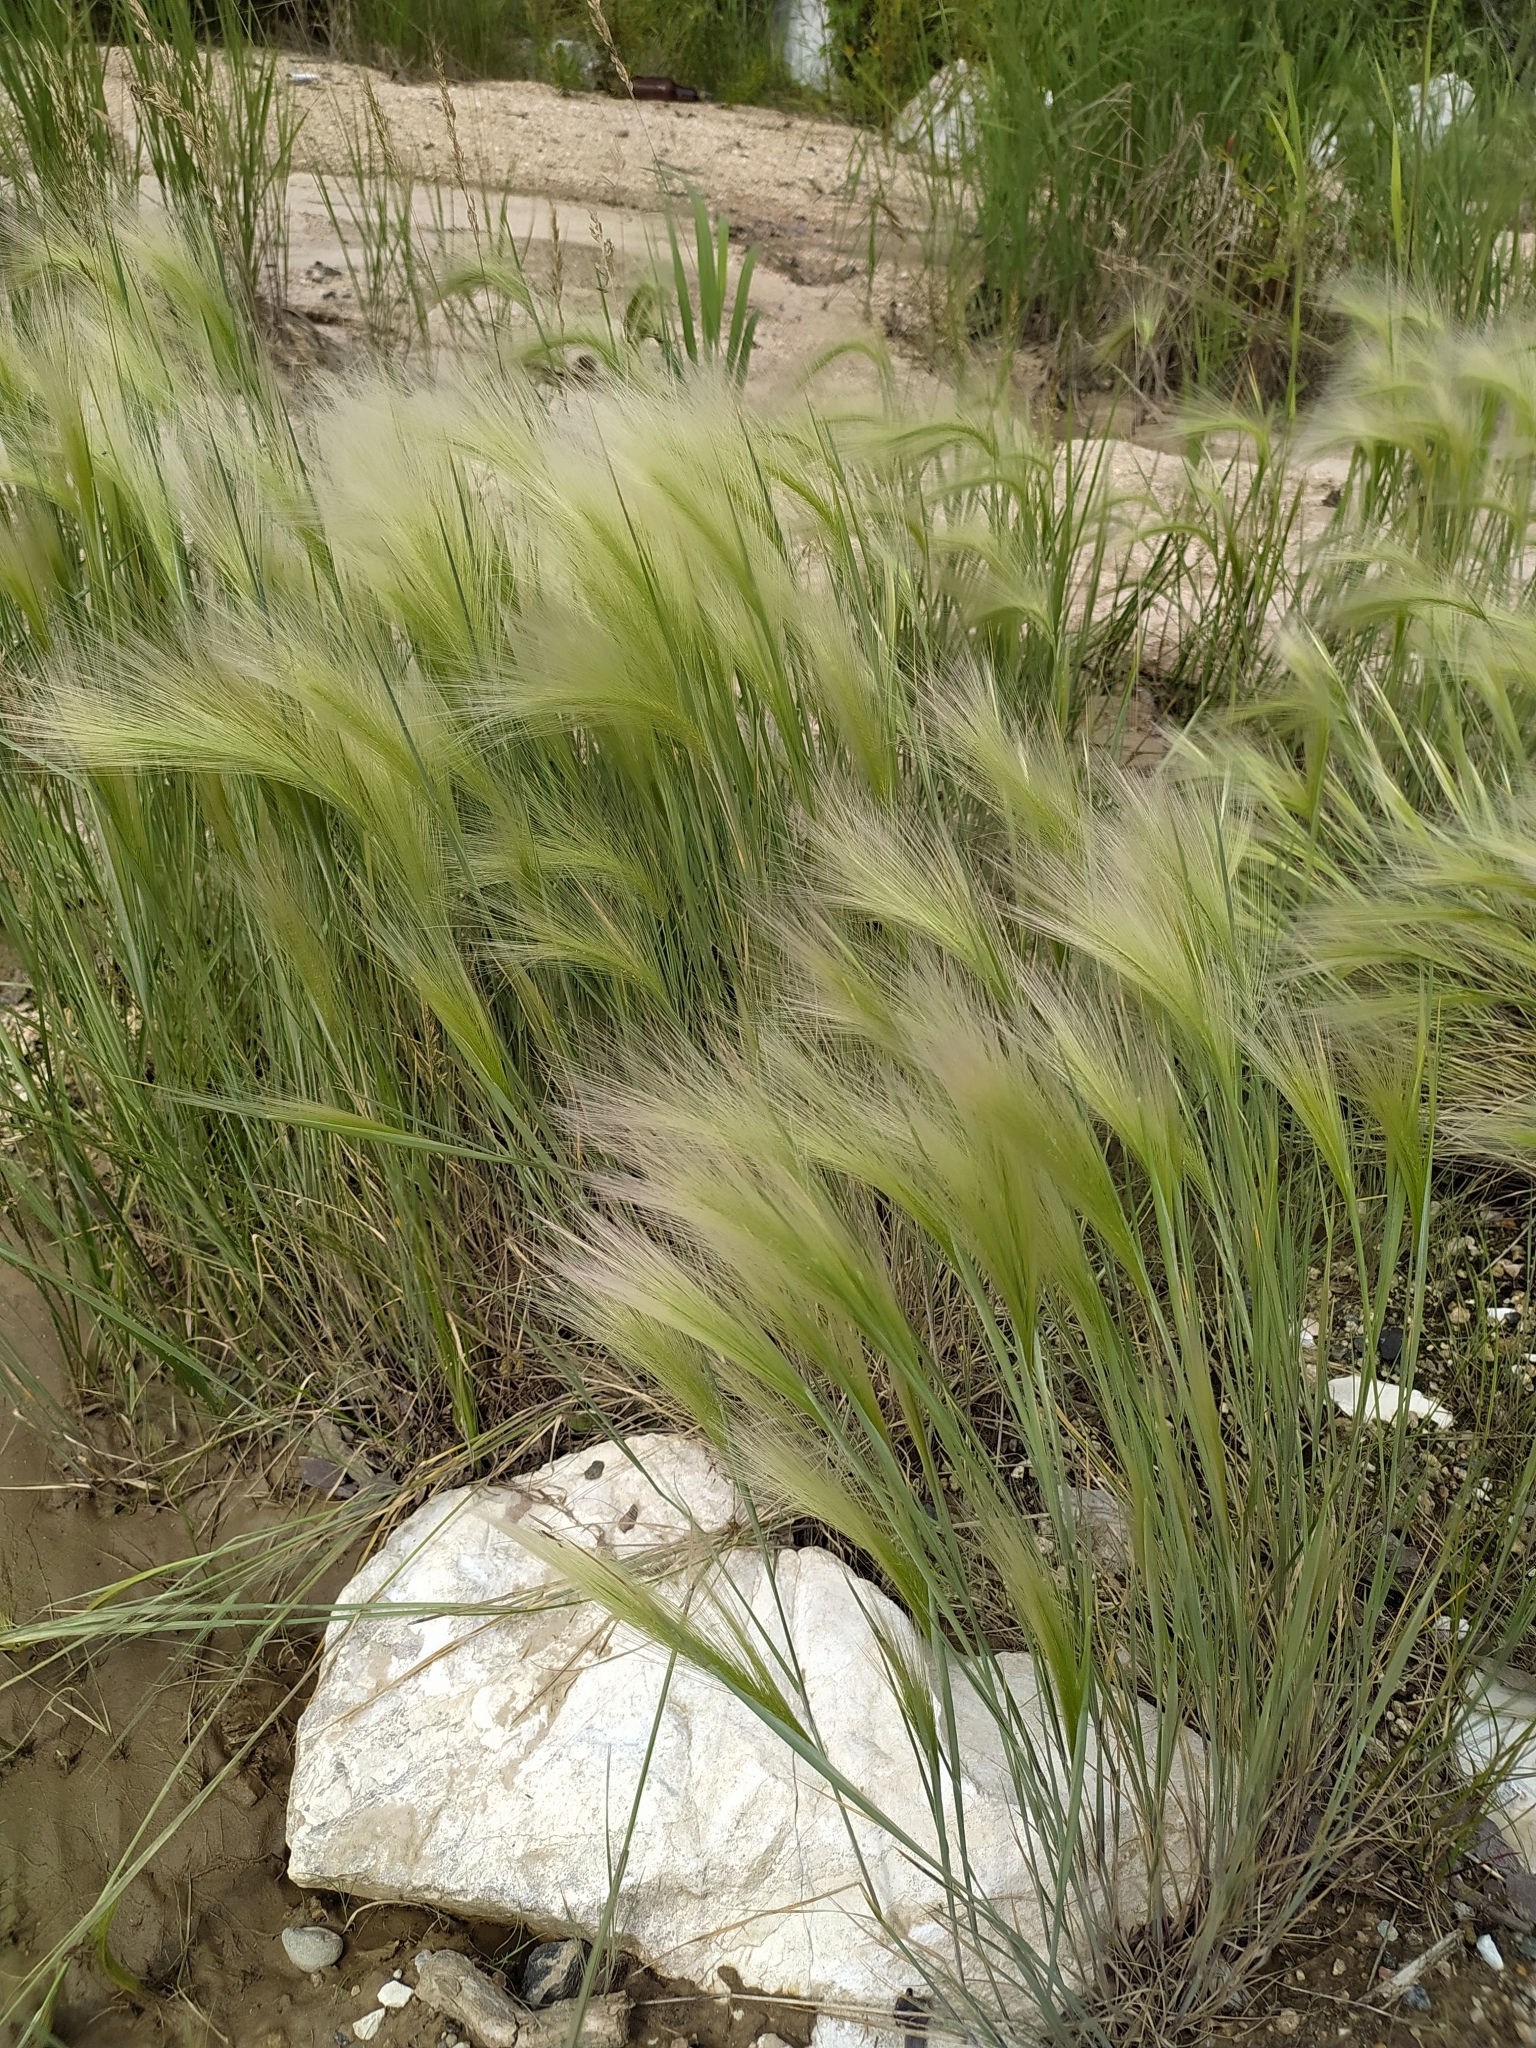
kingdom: Plantae
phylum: Tracheophyta
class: Liliopsida
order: Poales
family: Poaceae
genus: Hordeum
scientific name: Hordeum jubatum
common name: Foxtail barley
